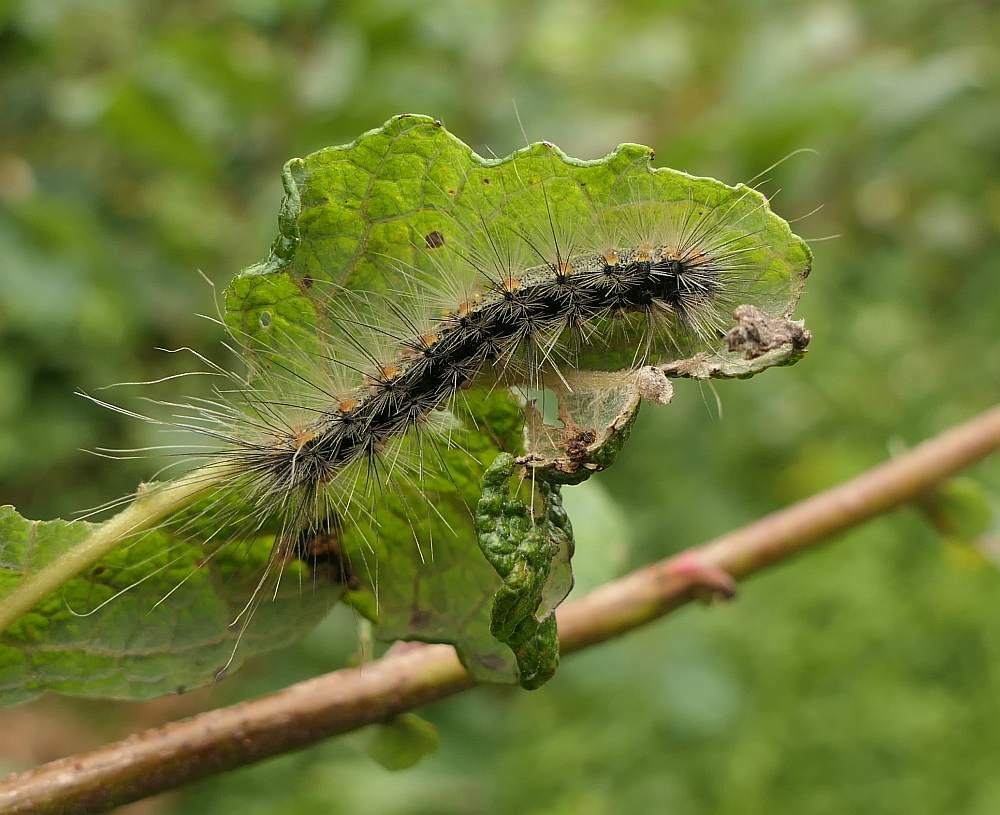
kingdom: Animalia
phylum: Arthropoda
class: Insecta
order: Lepidoptera
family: Erebidae
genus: Hyphantria
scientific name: Hyphantria cunea
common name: American white moth
